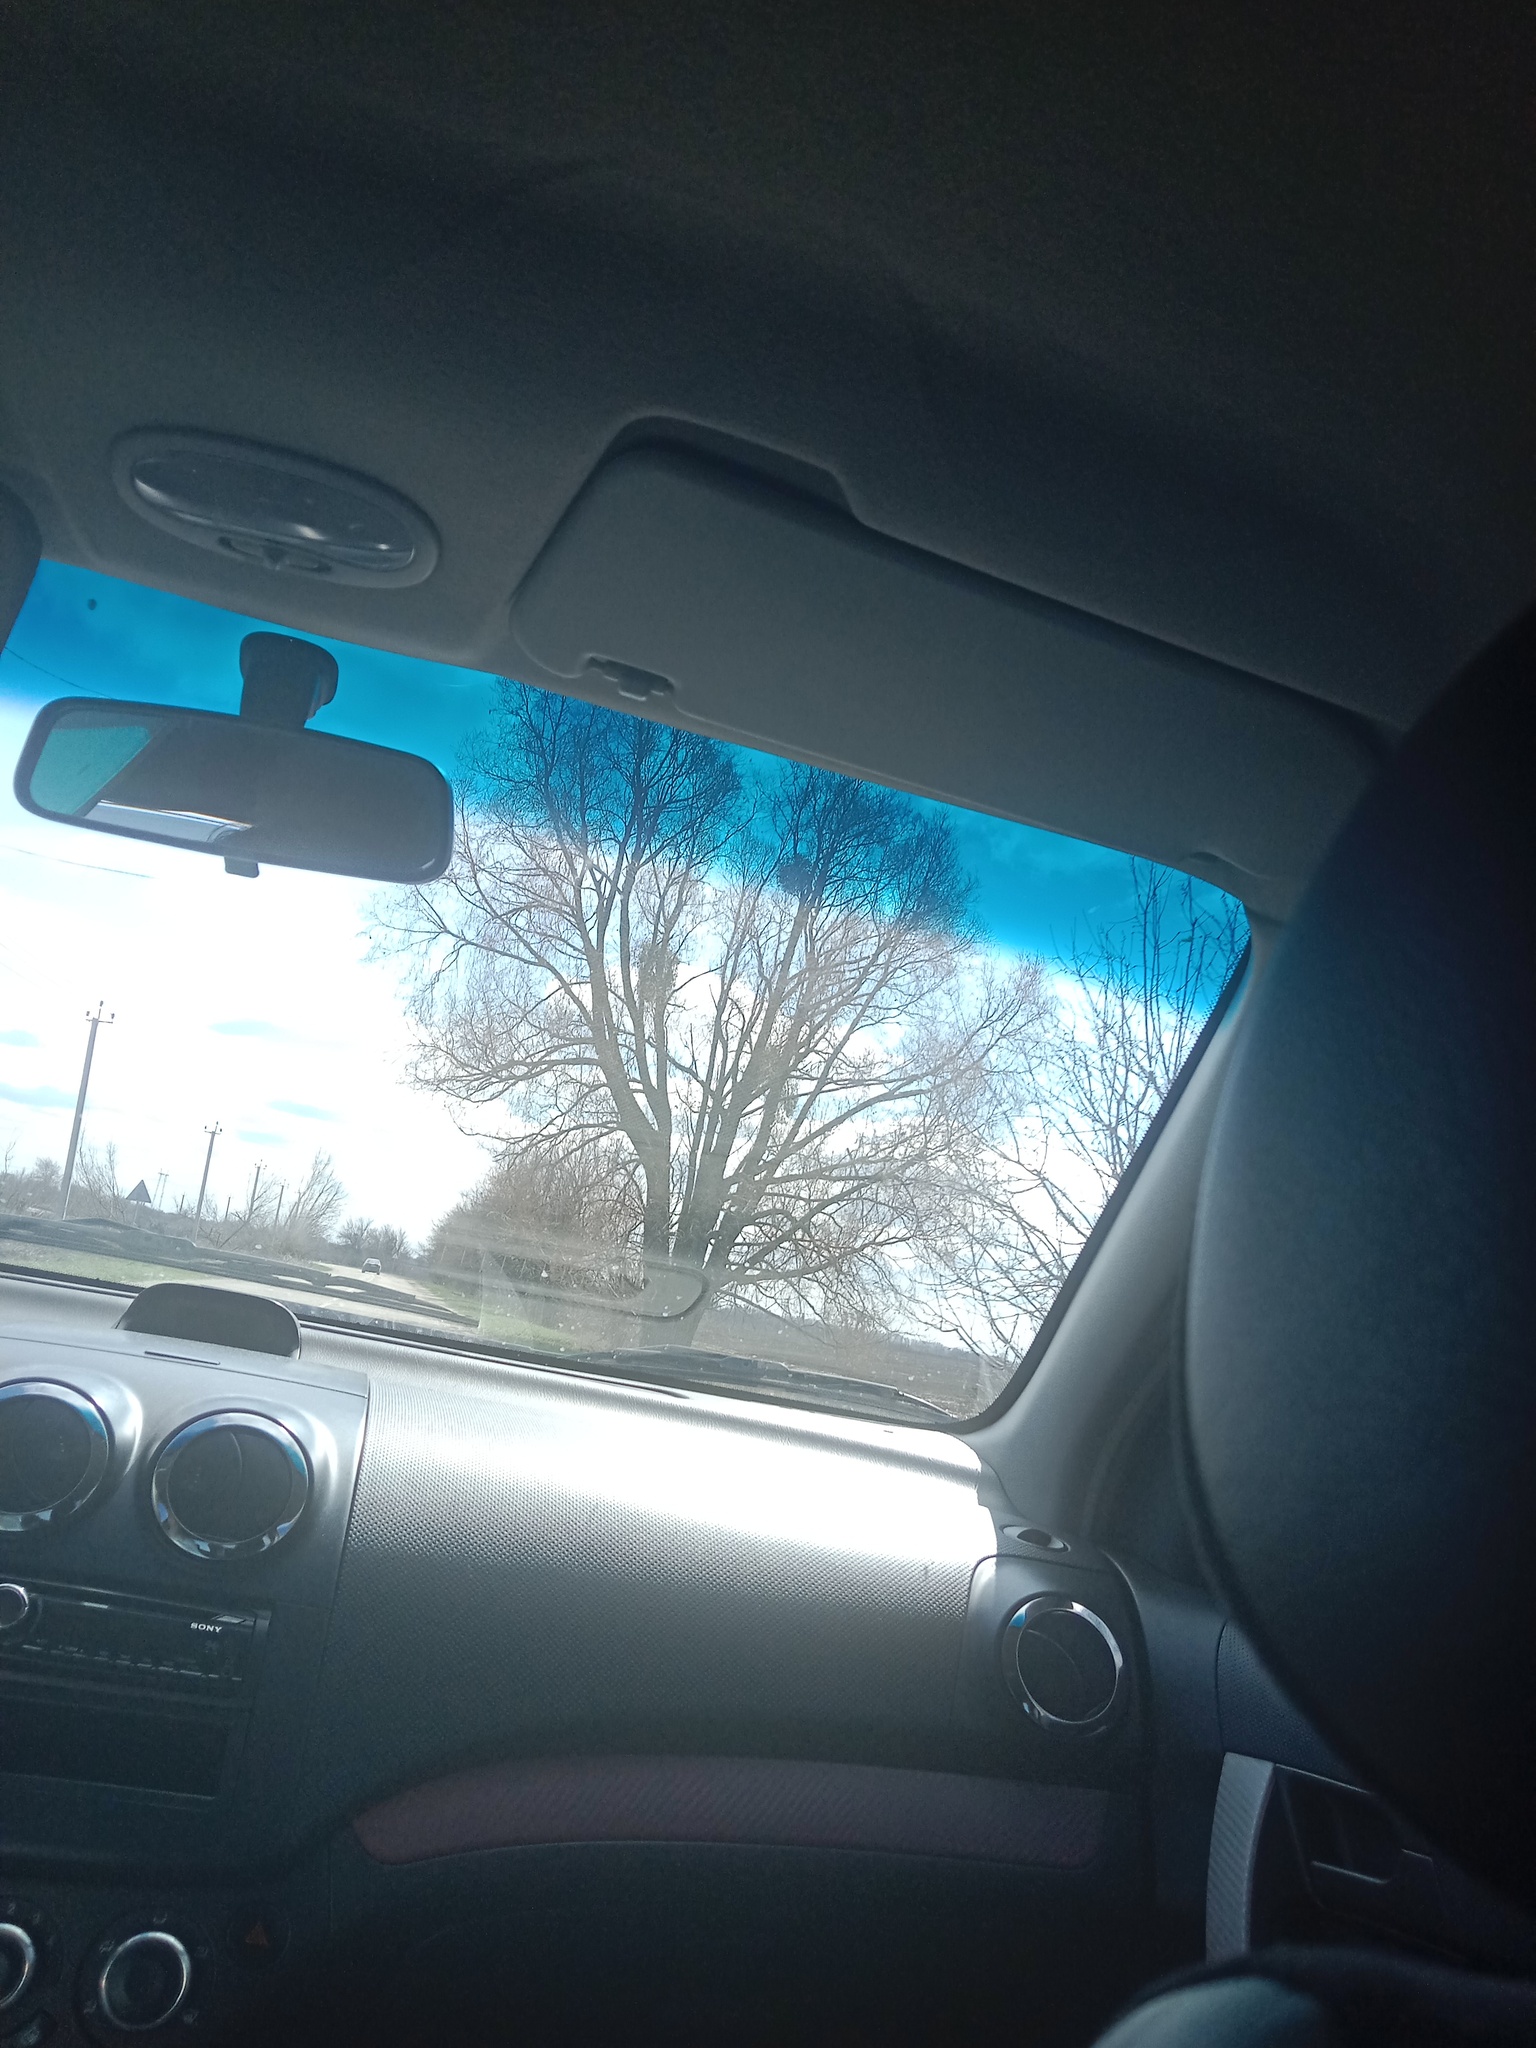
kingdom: Plantae
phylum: Tracheophyta
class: Magnoliopsida
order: Santalales
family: Viscaceae
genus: Viscum
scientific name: Viscum album
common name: Mistletoe
